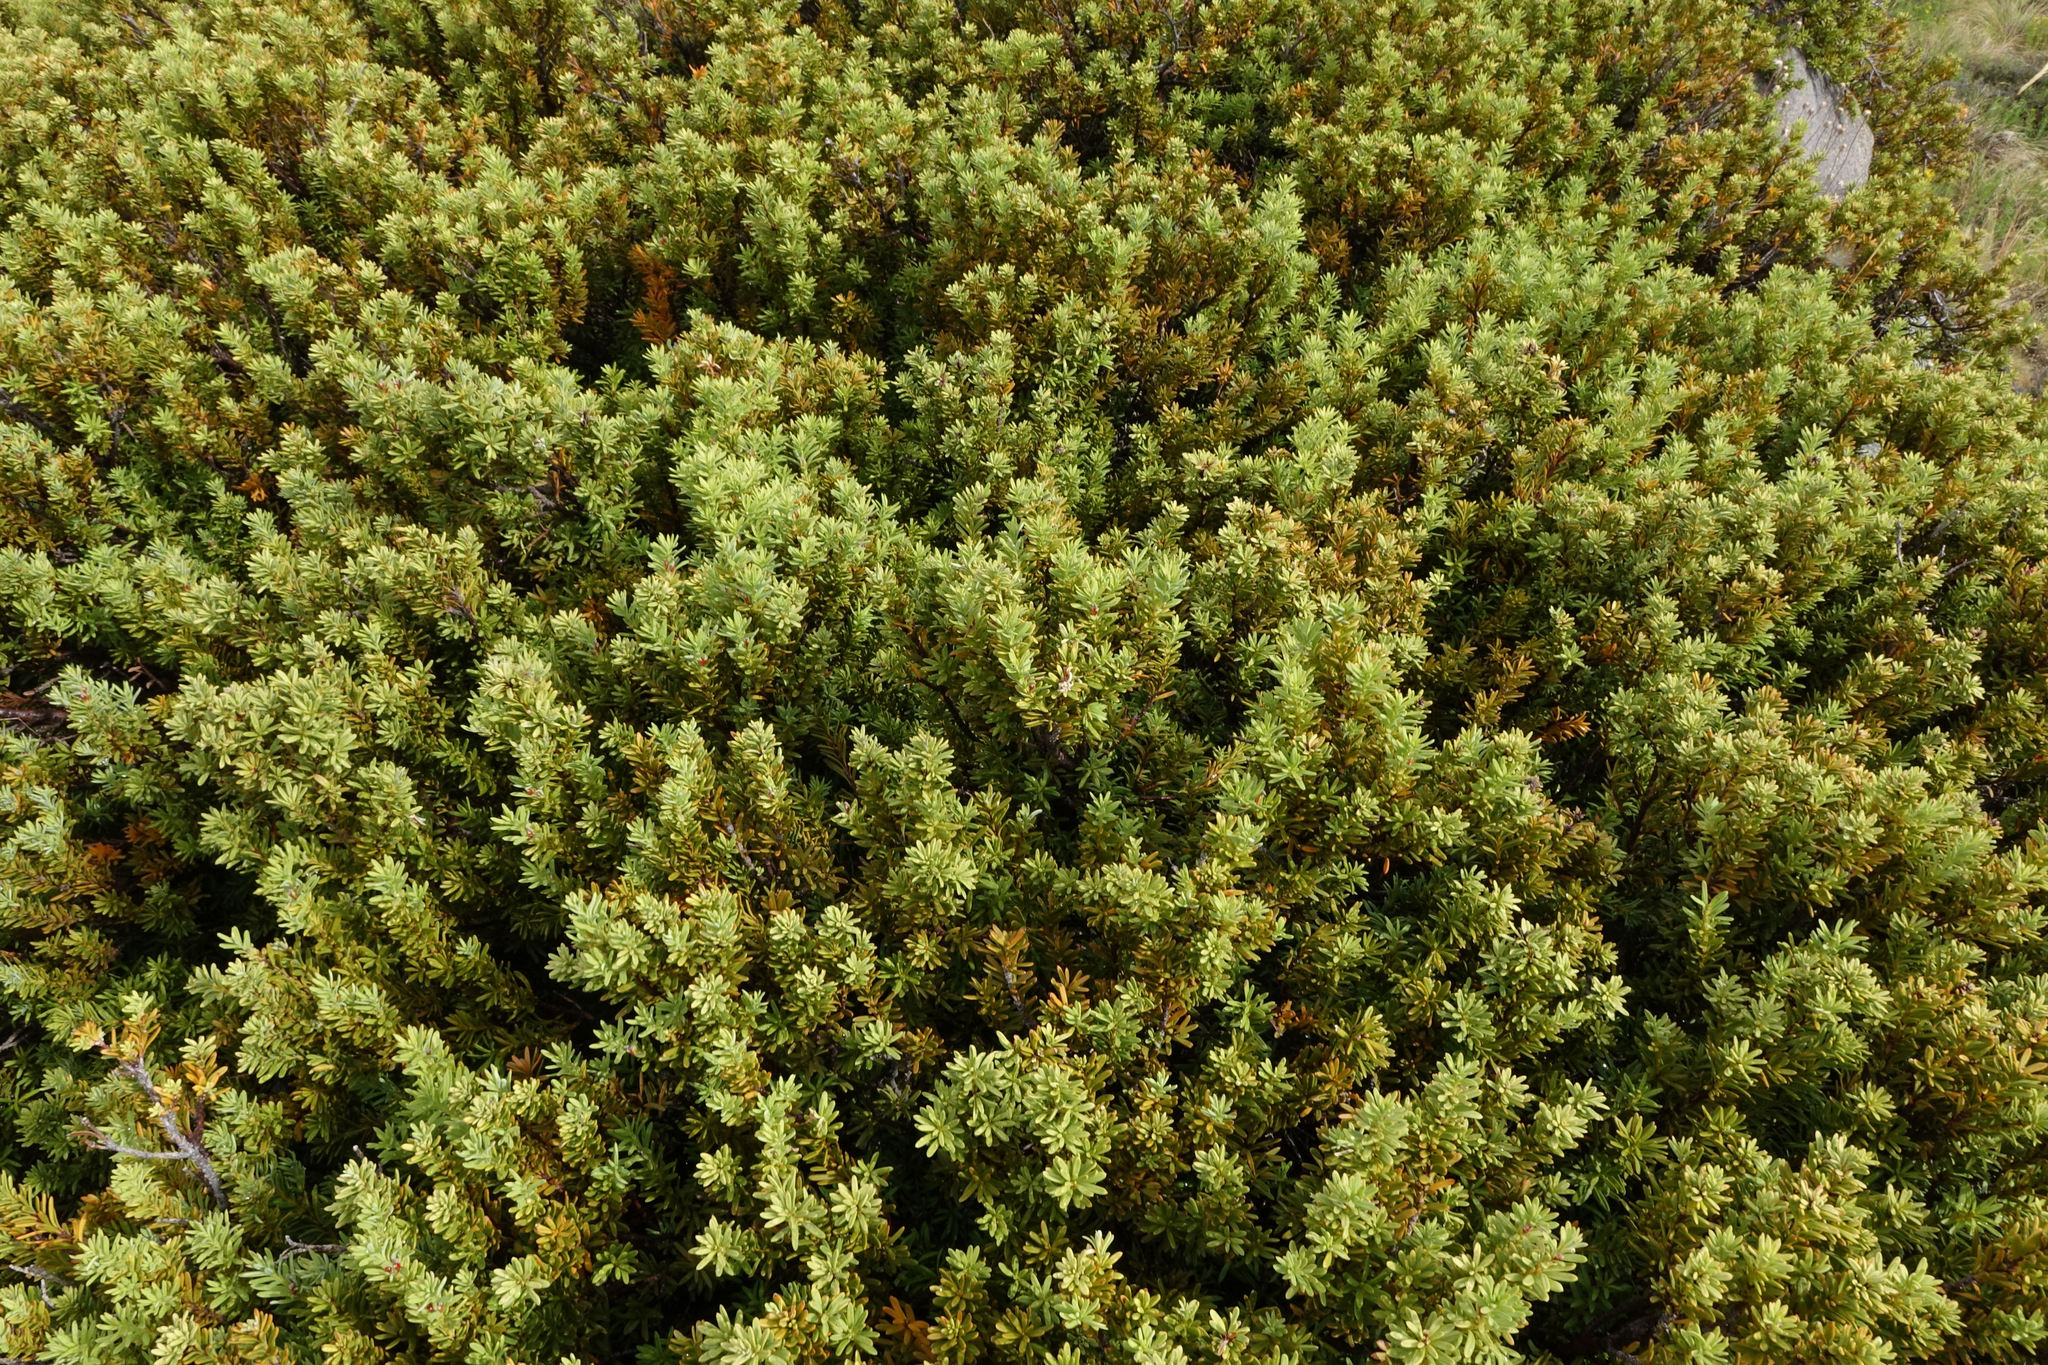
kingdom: Plantae
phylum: Tracheophyta
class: Pinopsida
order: Pinales
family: Podocarpaceae
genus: Podocarpus
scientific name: Podocarpus nivalis
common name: Alpine totara
